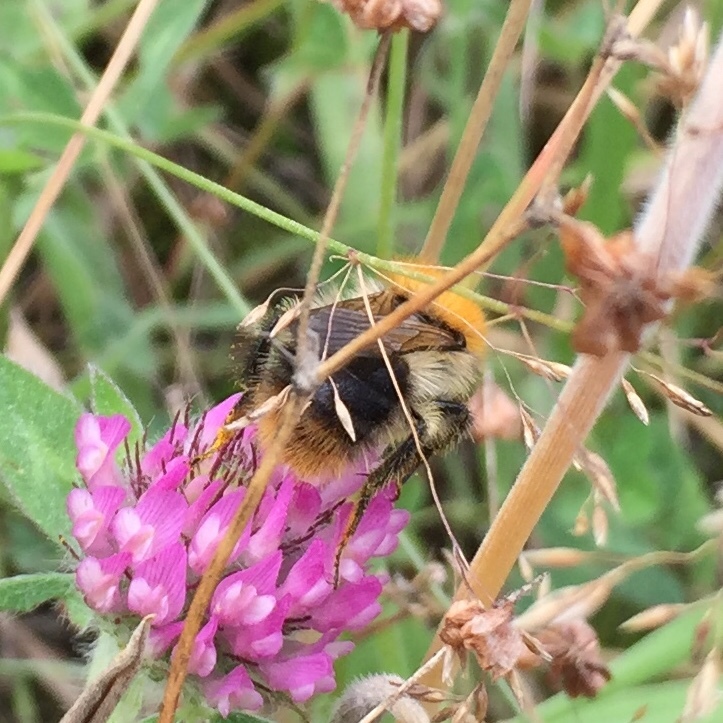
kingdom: Animalia
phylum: Arthropoda
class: Insecta
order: Hymenoptera
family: Apidae
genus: Bombus
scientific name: Bombus pascuorum
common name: Common carder bee
